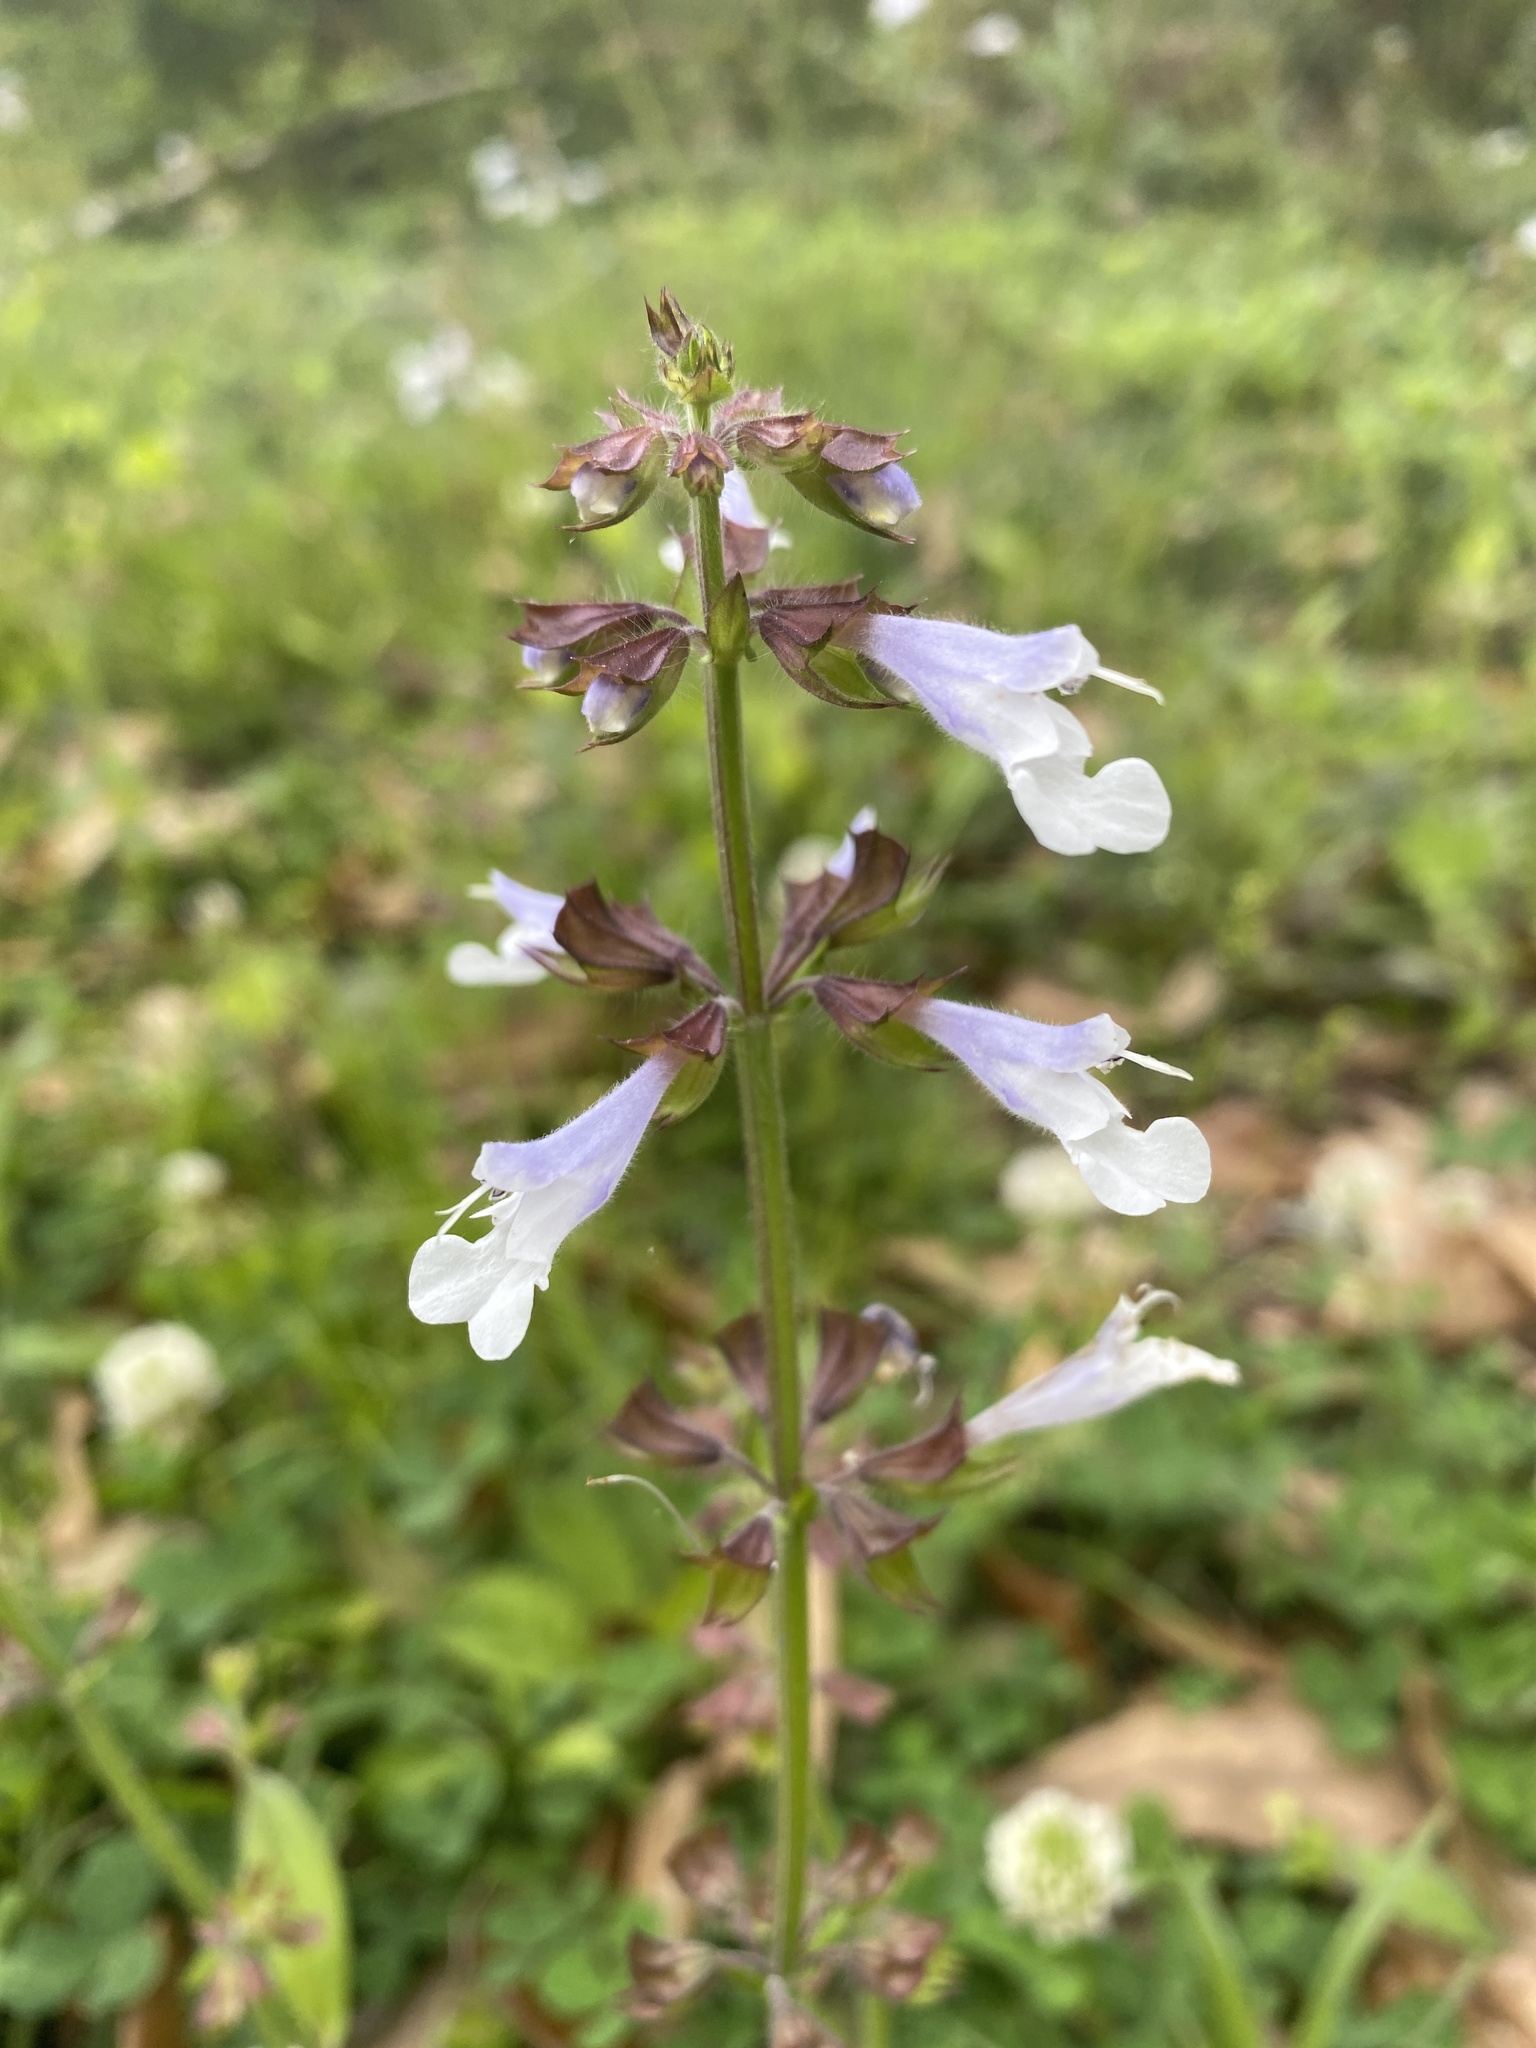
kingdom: Plantae
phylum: Tracheophyta
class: Magnoliopsida
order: Lamiales
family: Lamiaceae
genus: Salvia
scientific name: Salvia lyrata
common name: Cancerweed
